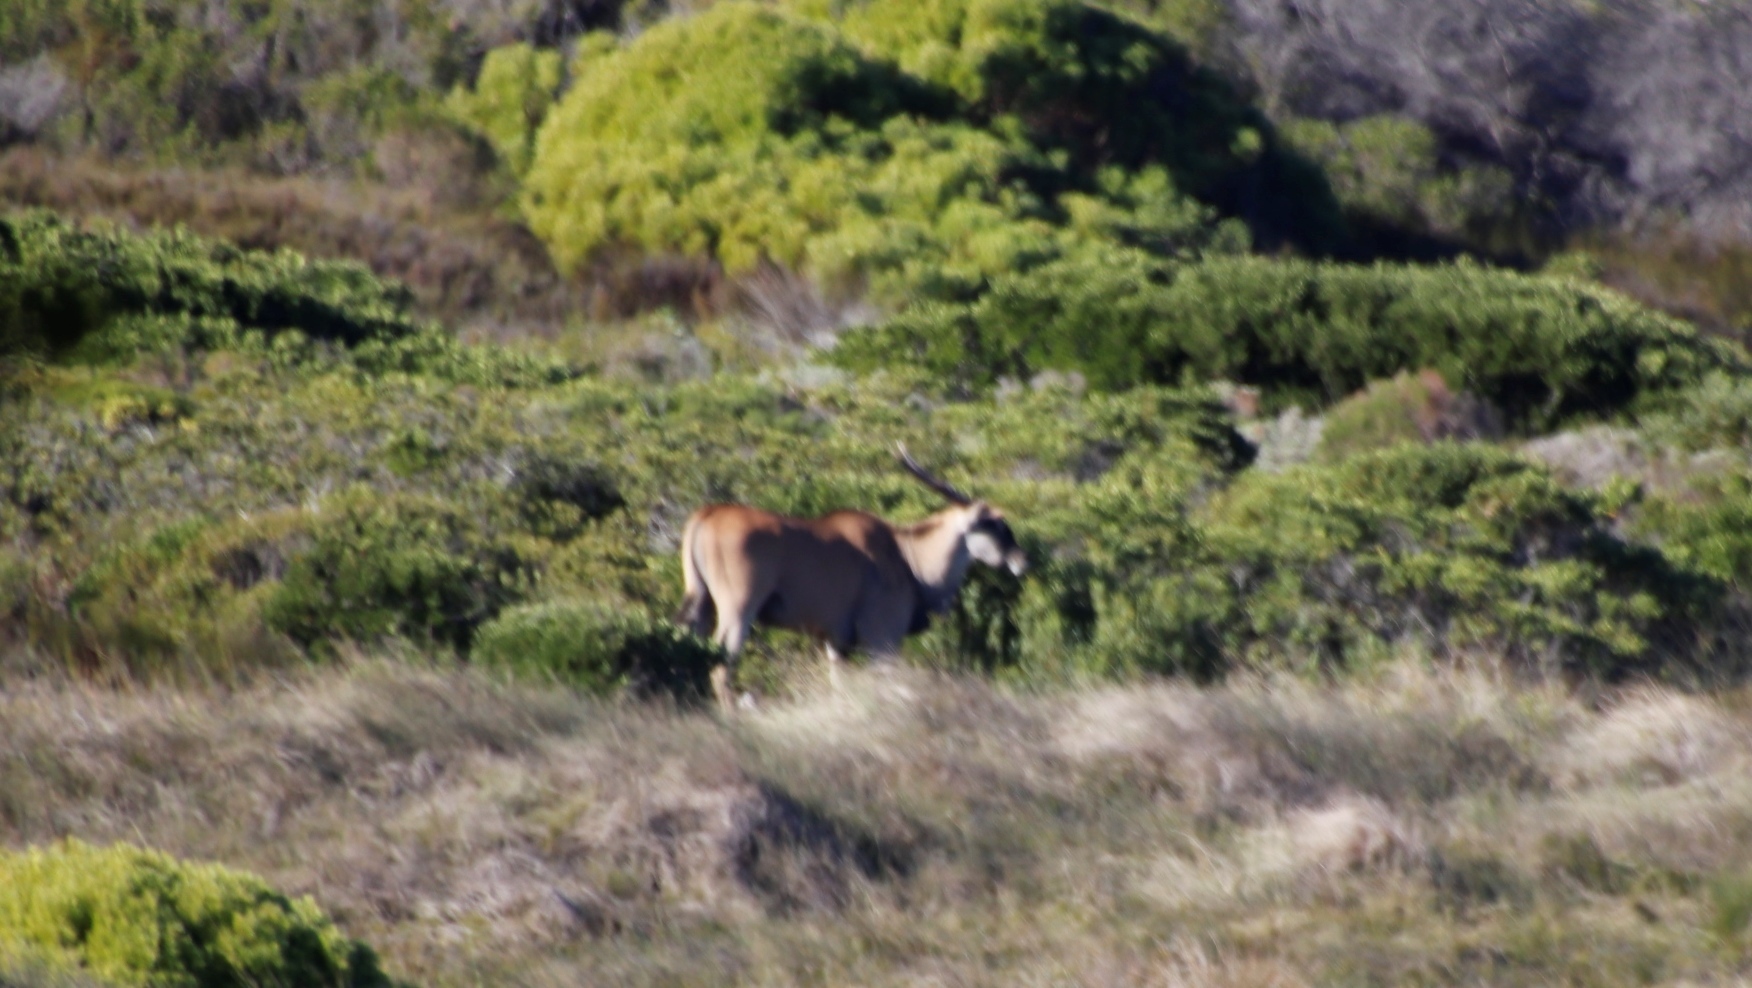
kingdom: Animalia
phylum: Chordata
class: Mammalia
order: Artiodactyla
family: Bovidae
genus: Taurotragus
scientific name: Taurotragus oryx
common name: Common eland
